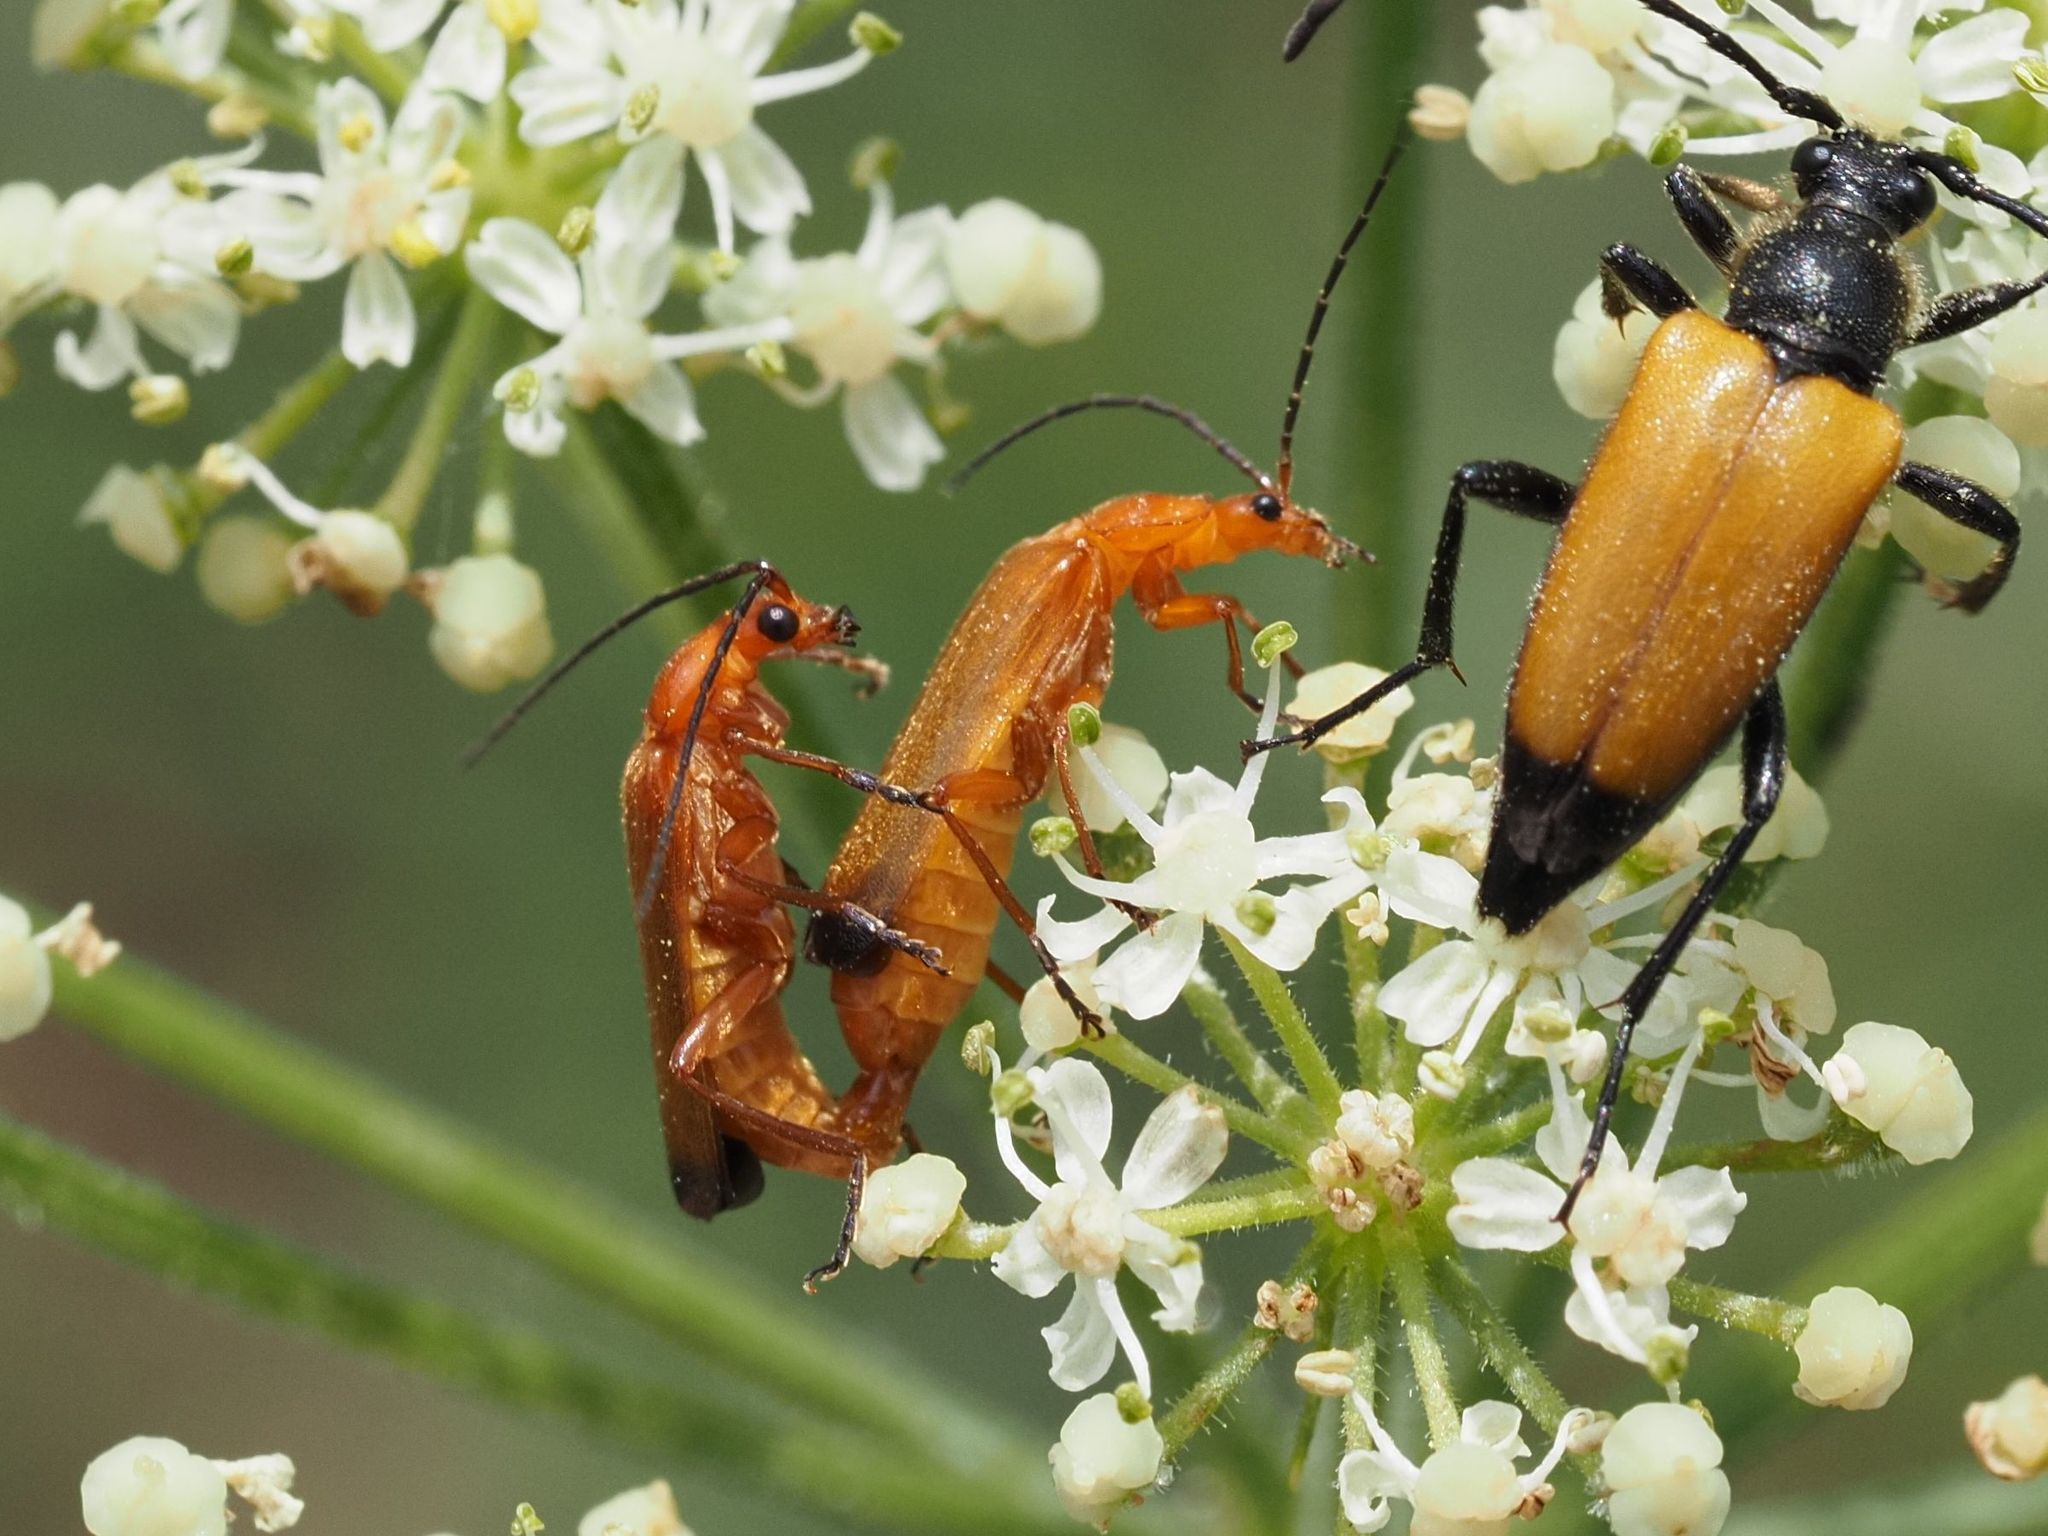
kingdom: Animalia
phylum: Arthropoda
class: Insecta
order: Coleoptera
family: Cantharidae
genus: Rhagonycha
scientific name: Rhagonycha fulva
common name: Common red soldier beetle
